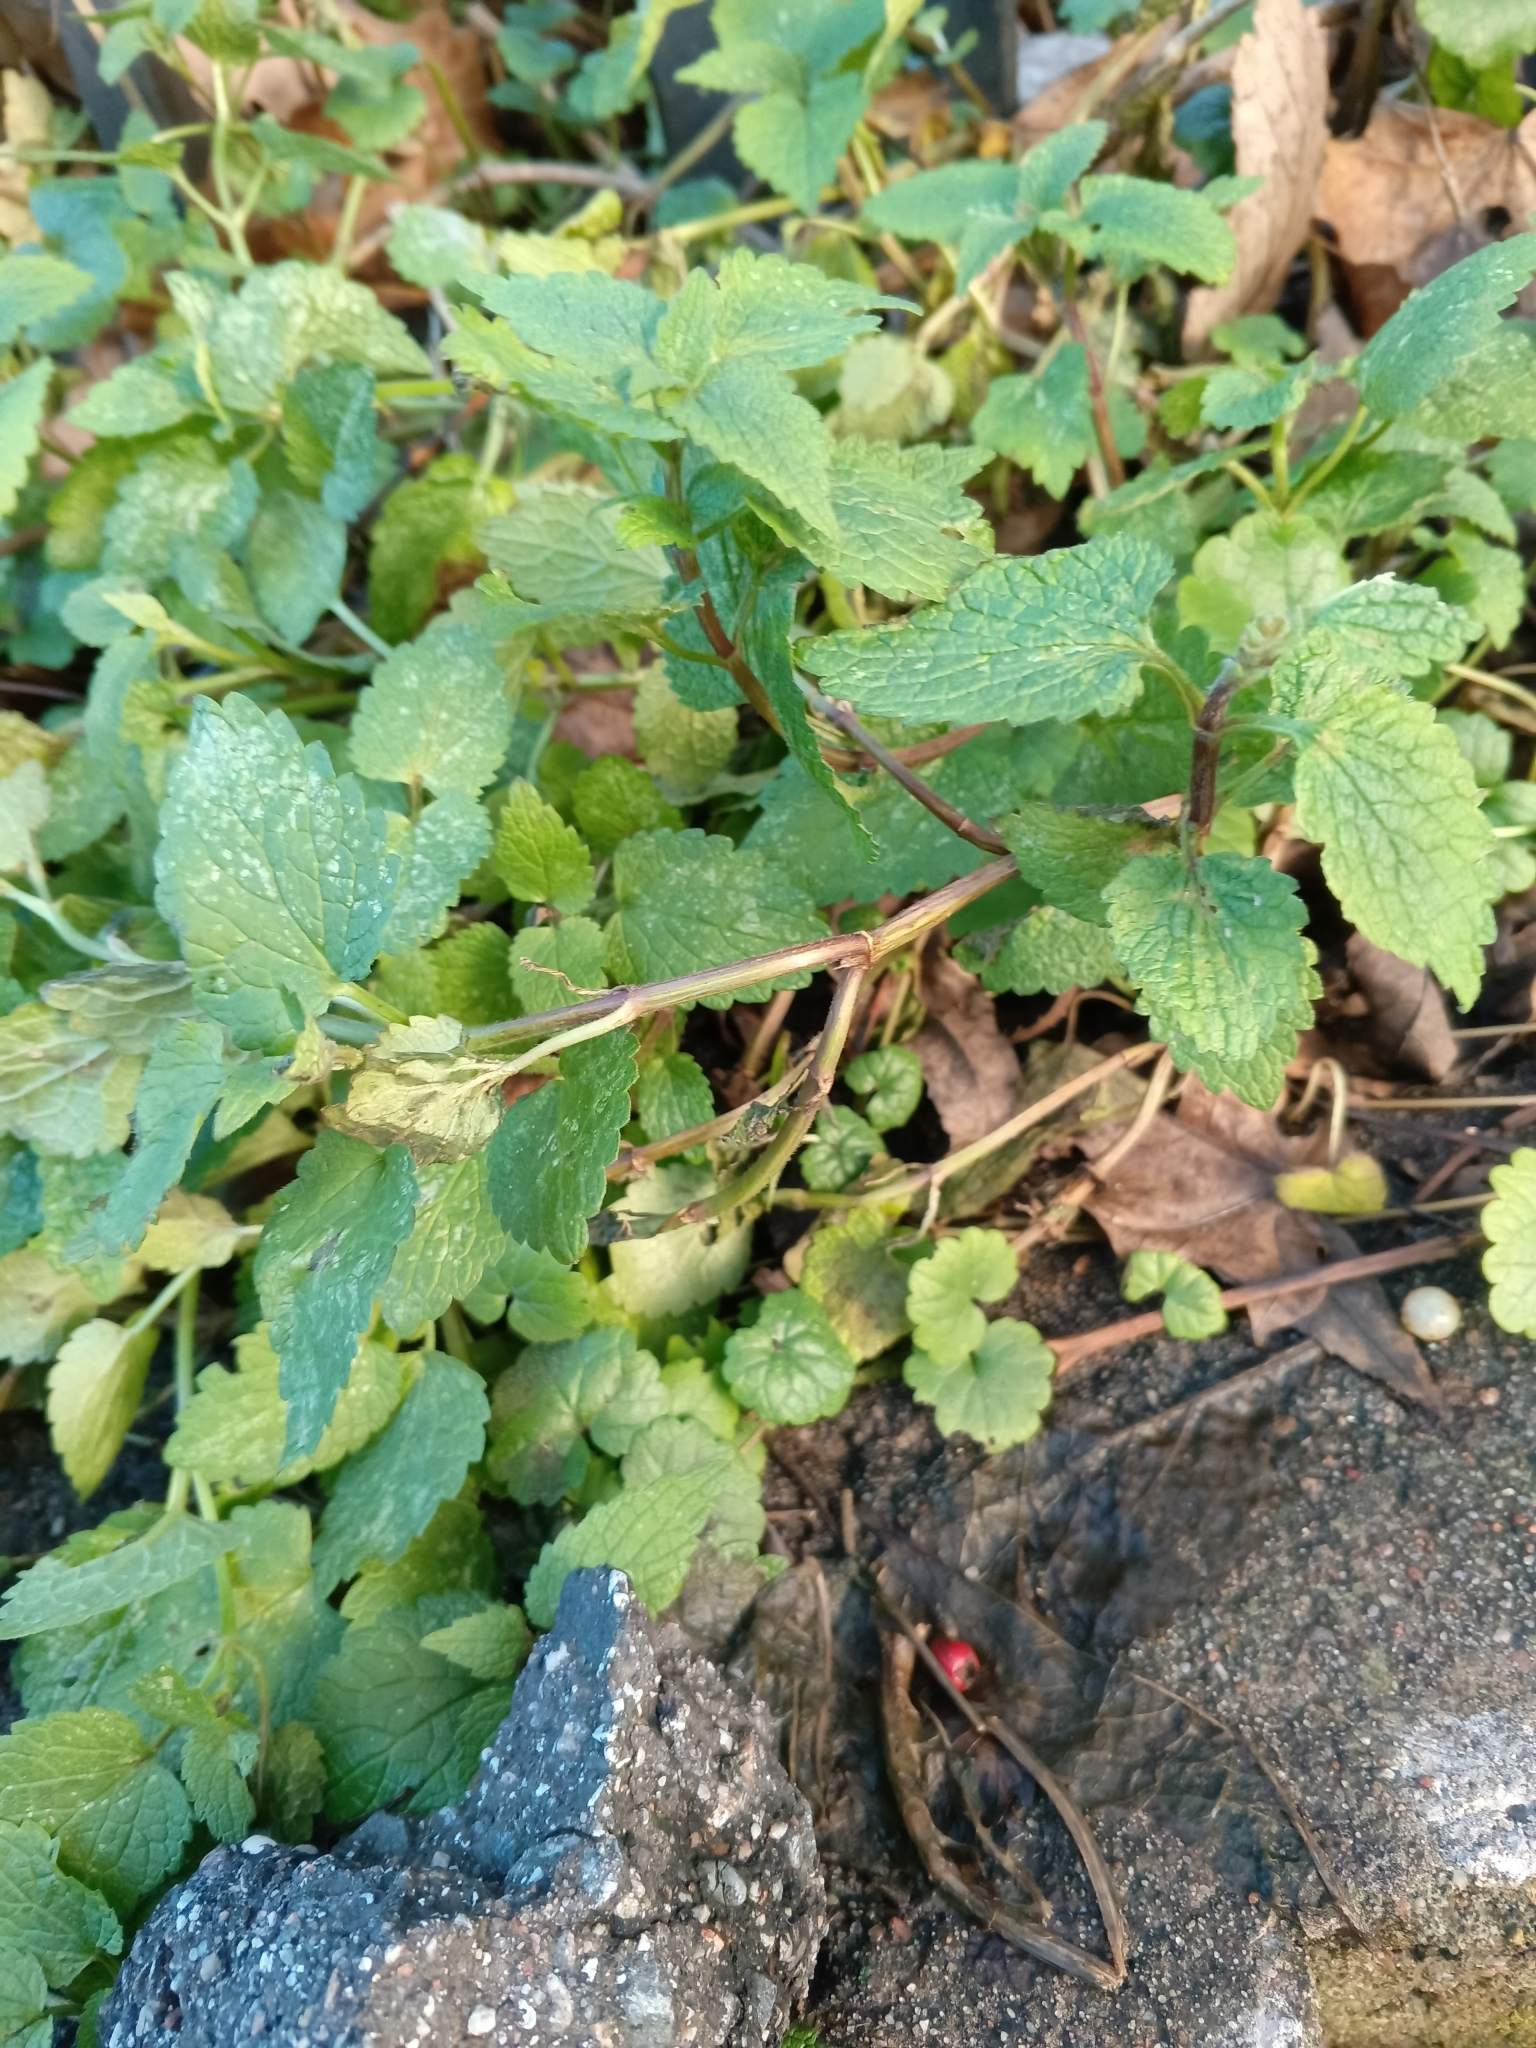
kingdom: Plantae
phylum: Tracheophyta
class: Magnoliopsida
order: Lamiales
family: Lamiaceae
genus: Lamium
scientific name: Lamium album
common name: White dead-nettle
